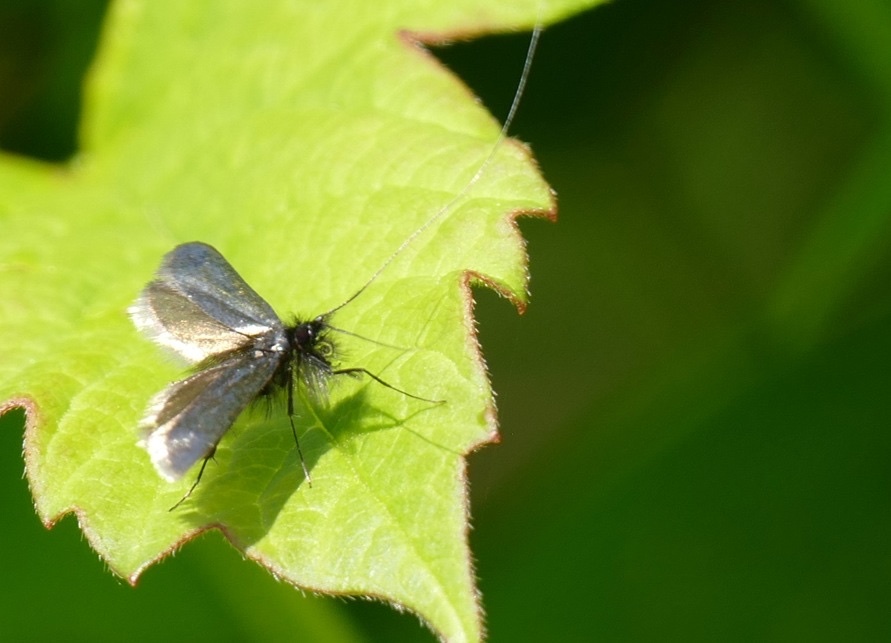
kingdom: Animalia
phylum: Arthropoda
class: Insecta
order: Lepidoptera
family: Adelidae
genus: Adela
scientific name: Adela viridella
